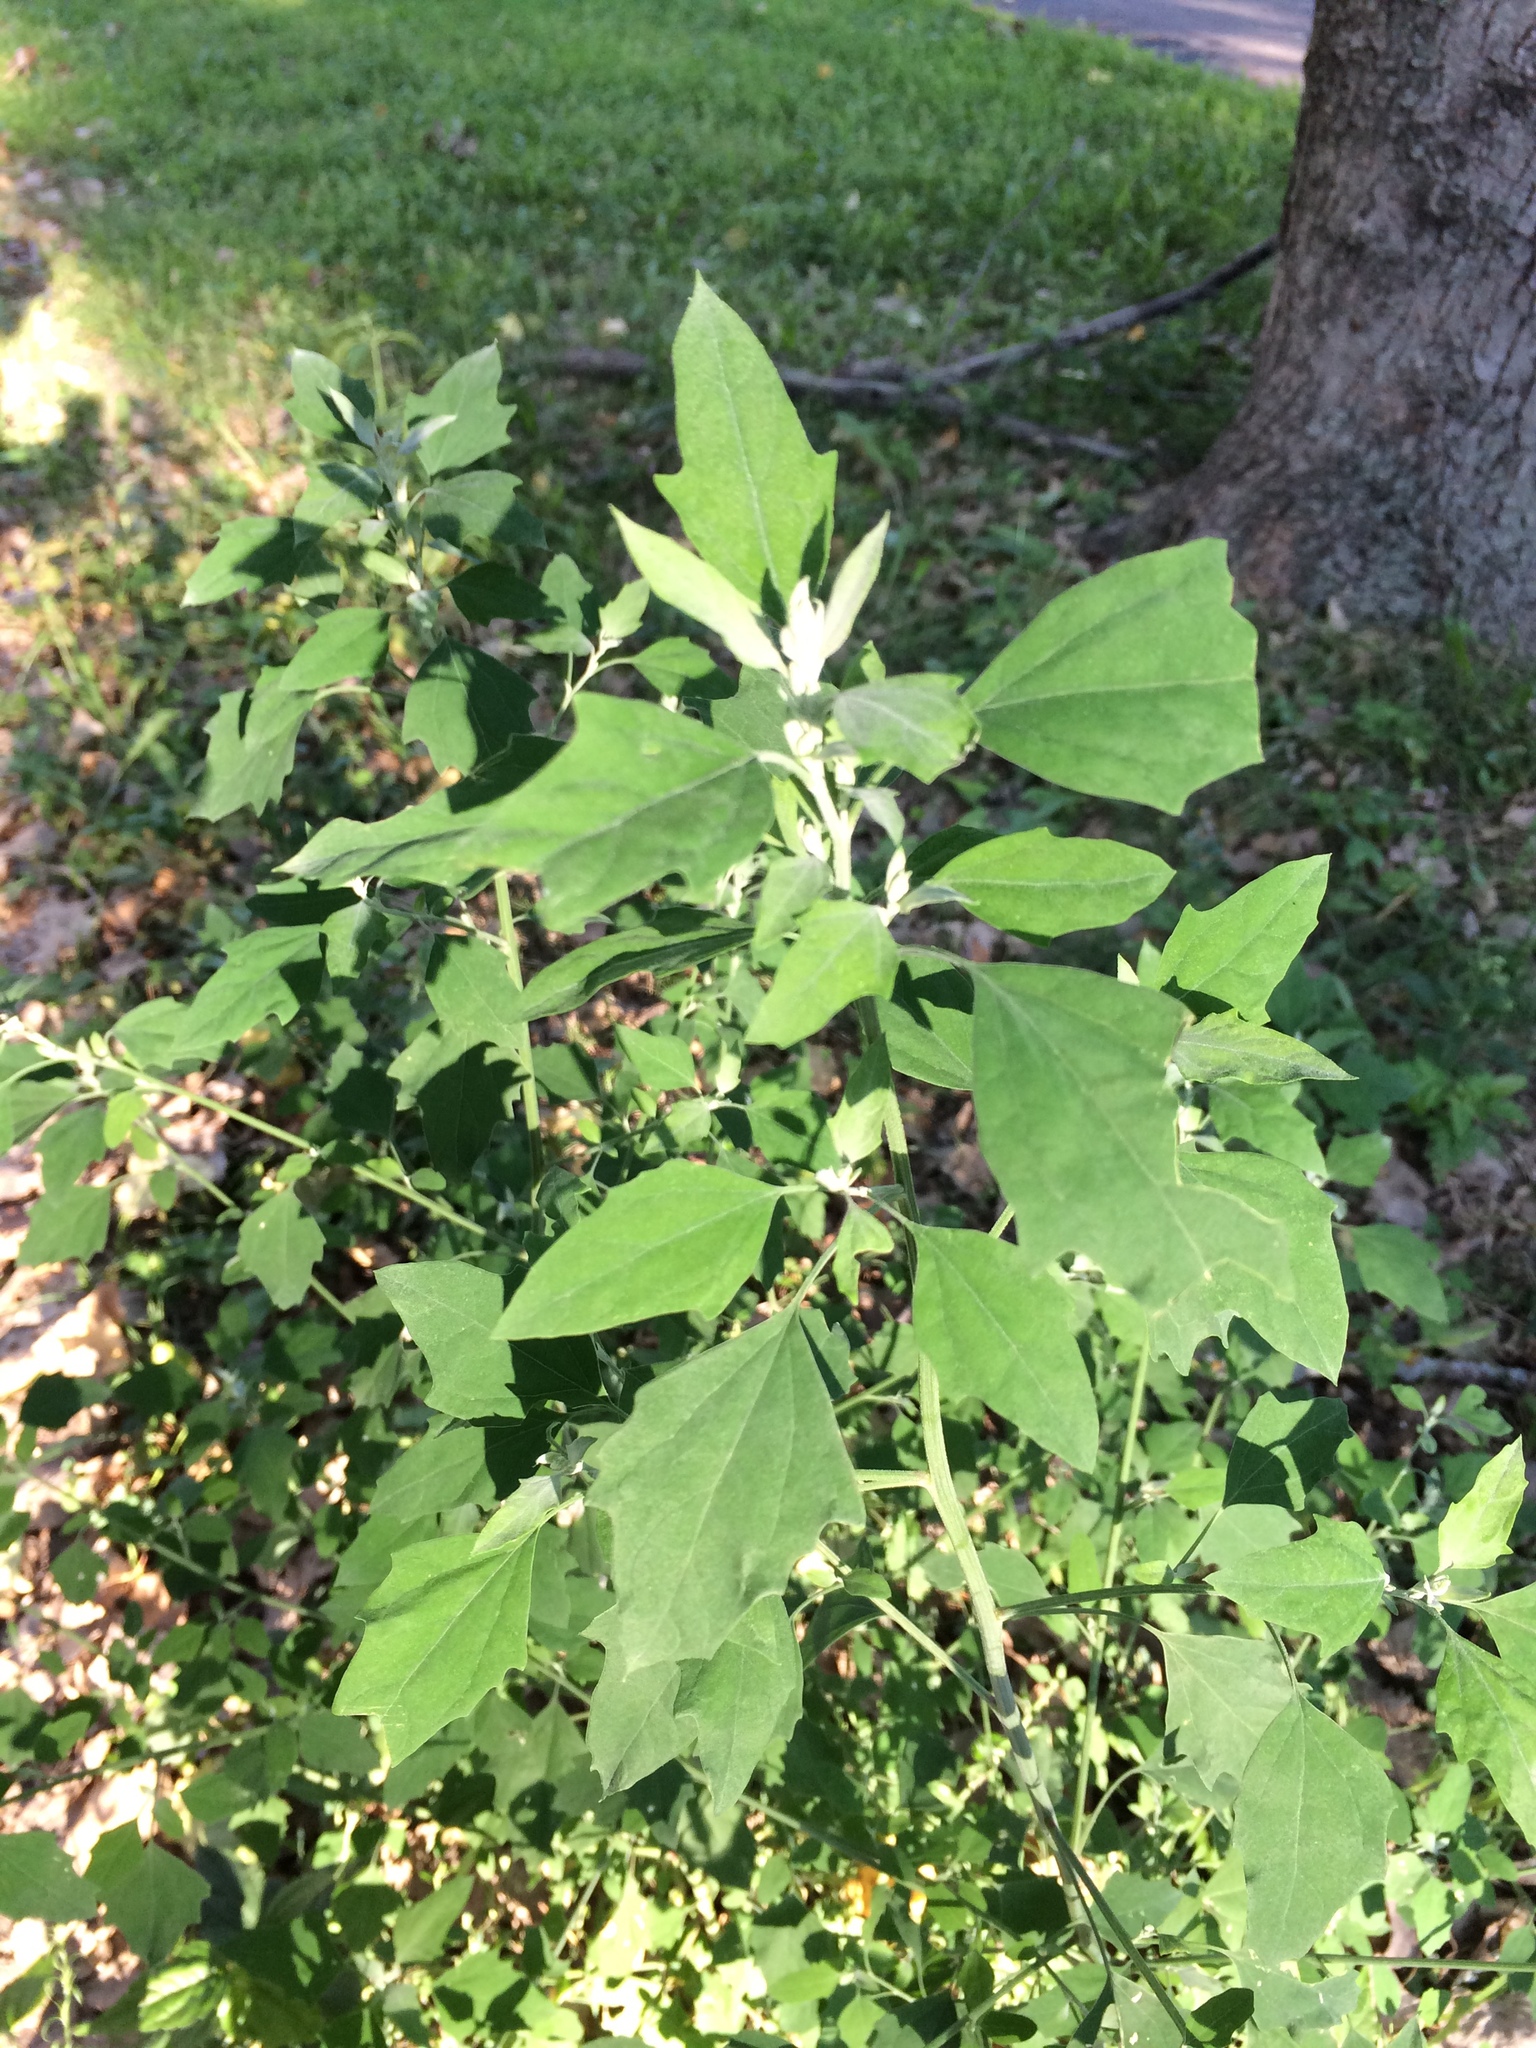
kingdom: Plantae
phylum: Tracheophyta
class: Magnoliopsida
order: Caryophyllales
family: Amaranthaceae
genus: Chenopodium
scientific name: Chenopodium album
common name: Fat-hen
